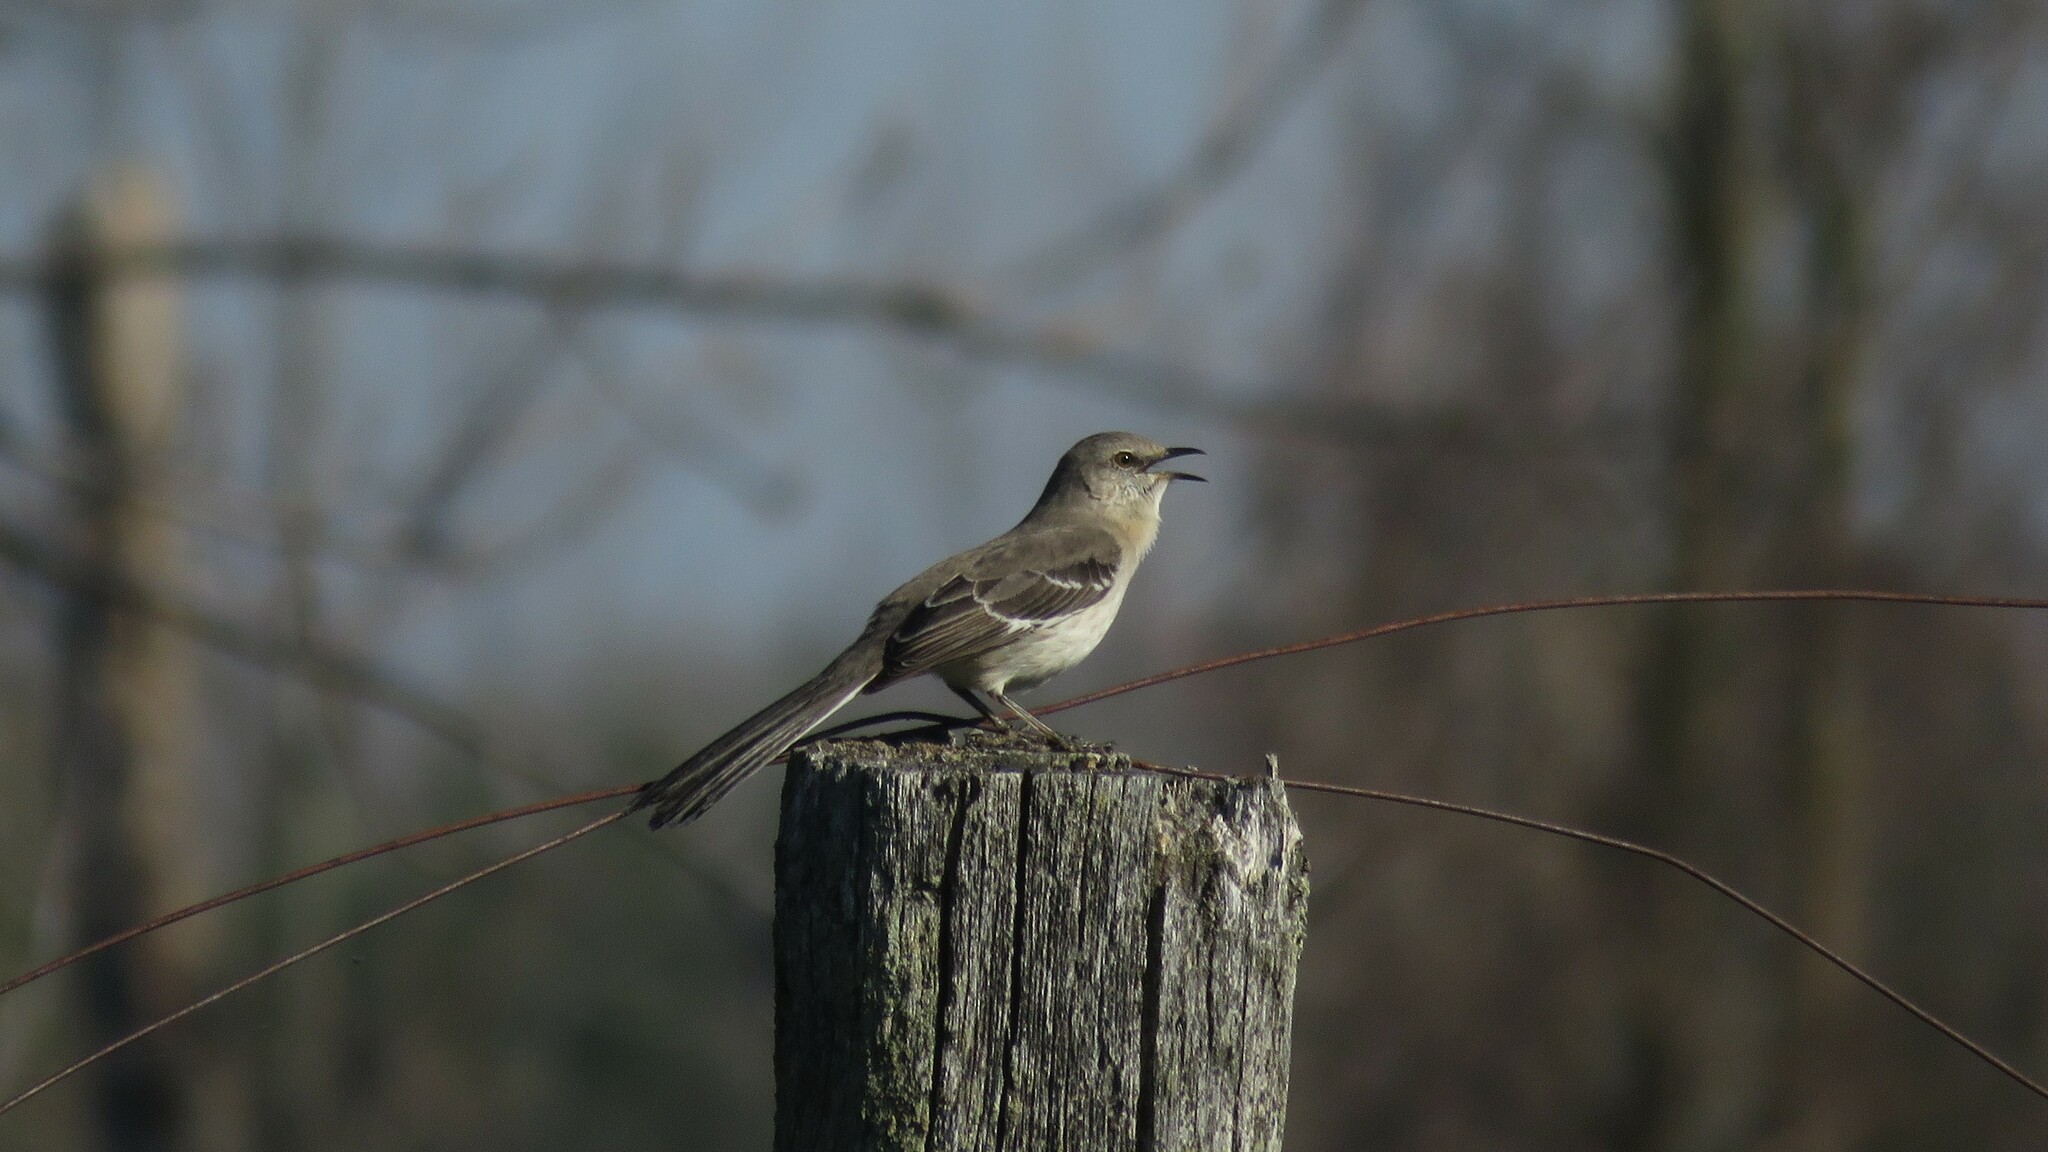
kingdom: Animalia
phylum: Chordata
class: Aves
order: Passeriformes
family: Mimidae
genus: Mimus
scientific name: Mimus polyglottos
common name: Northern mockingbird
